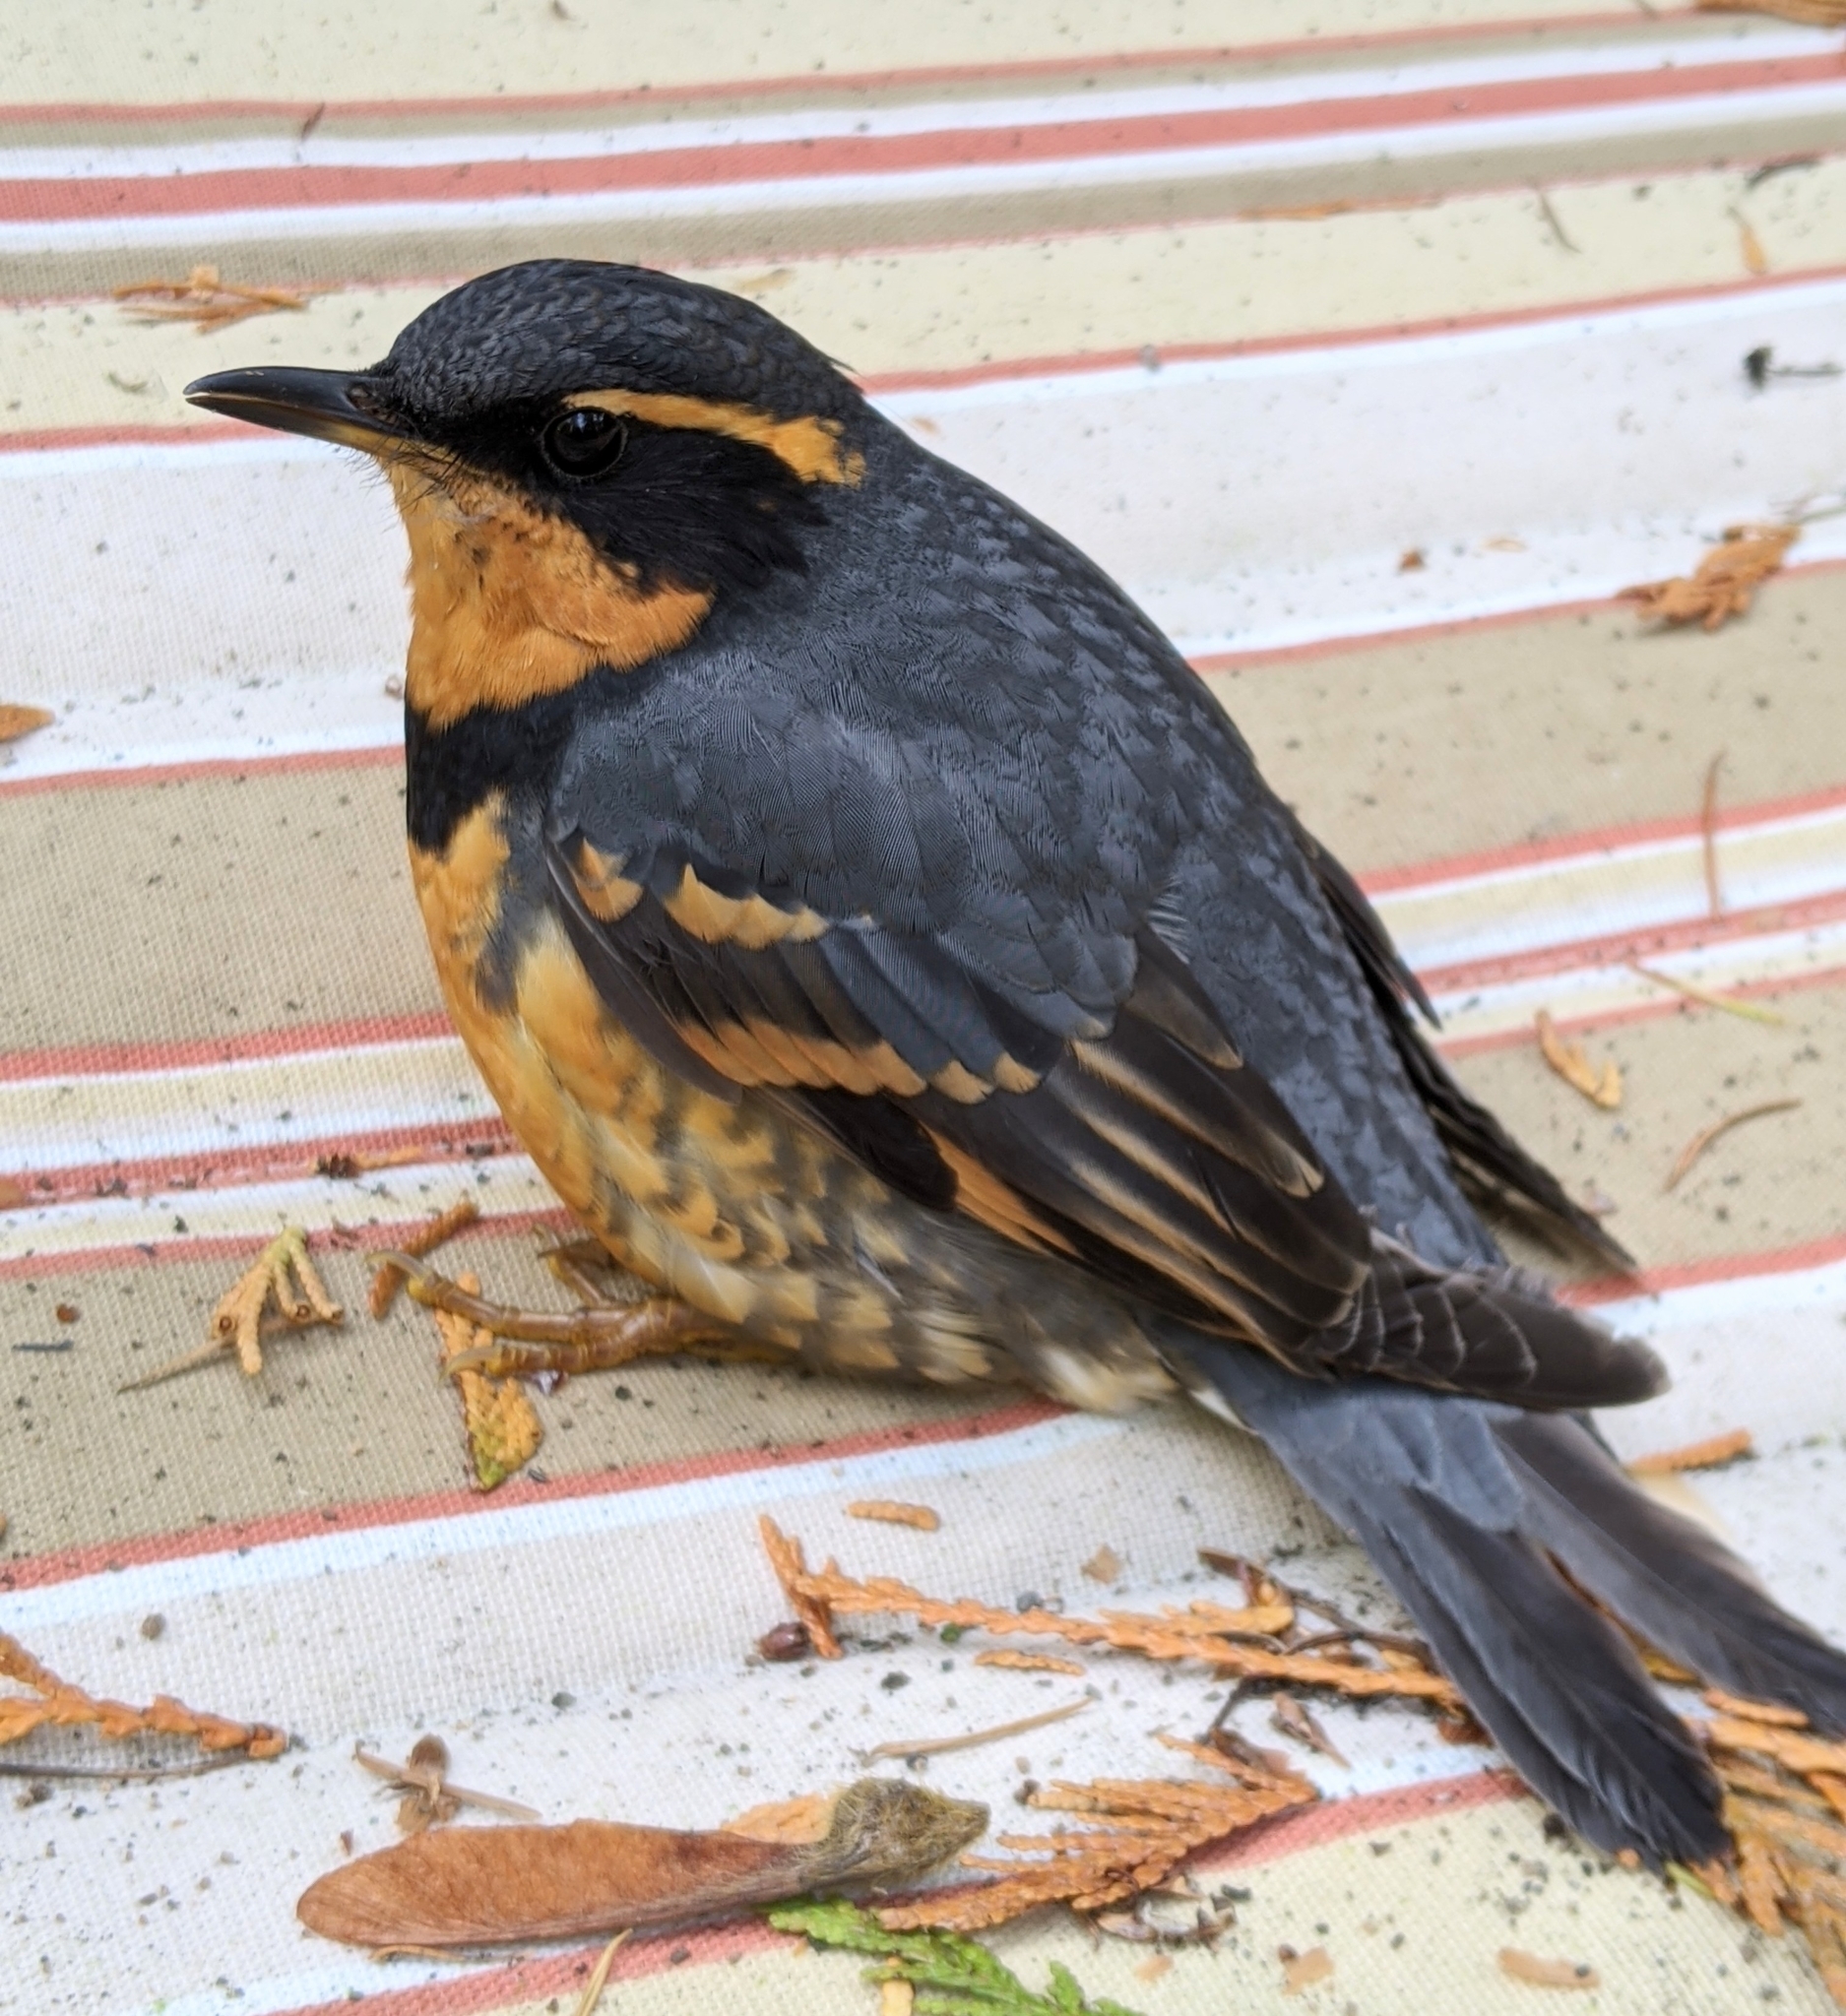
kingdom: Animalia
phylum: Chordata
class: Aves
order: Passeriformes
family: Turdidae
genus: Ixoreus
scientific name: Ixoreus naevius
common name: Varied thrush
